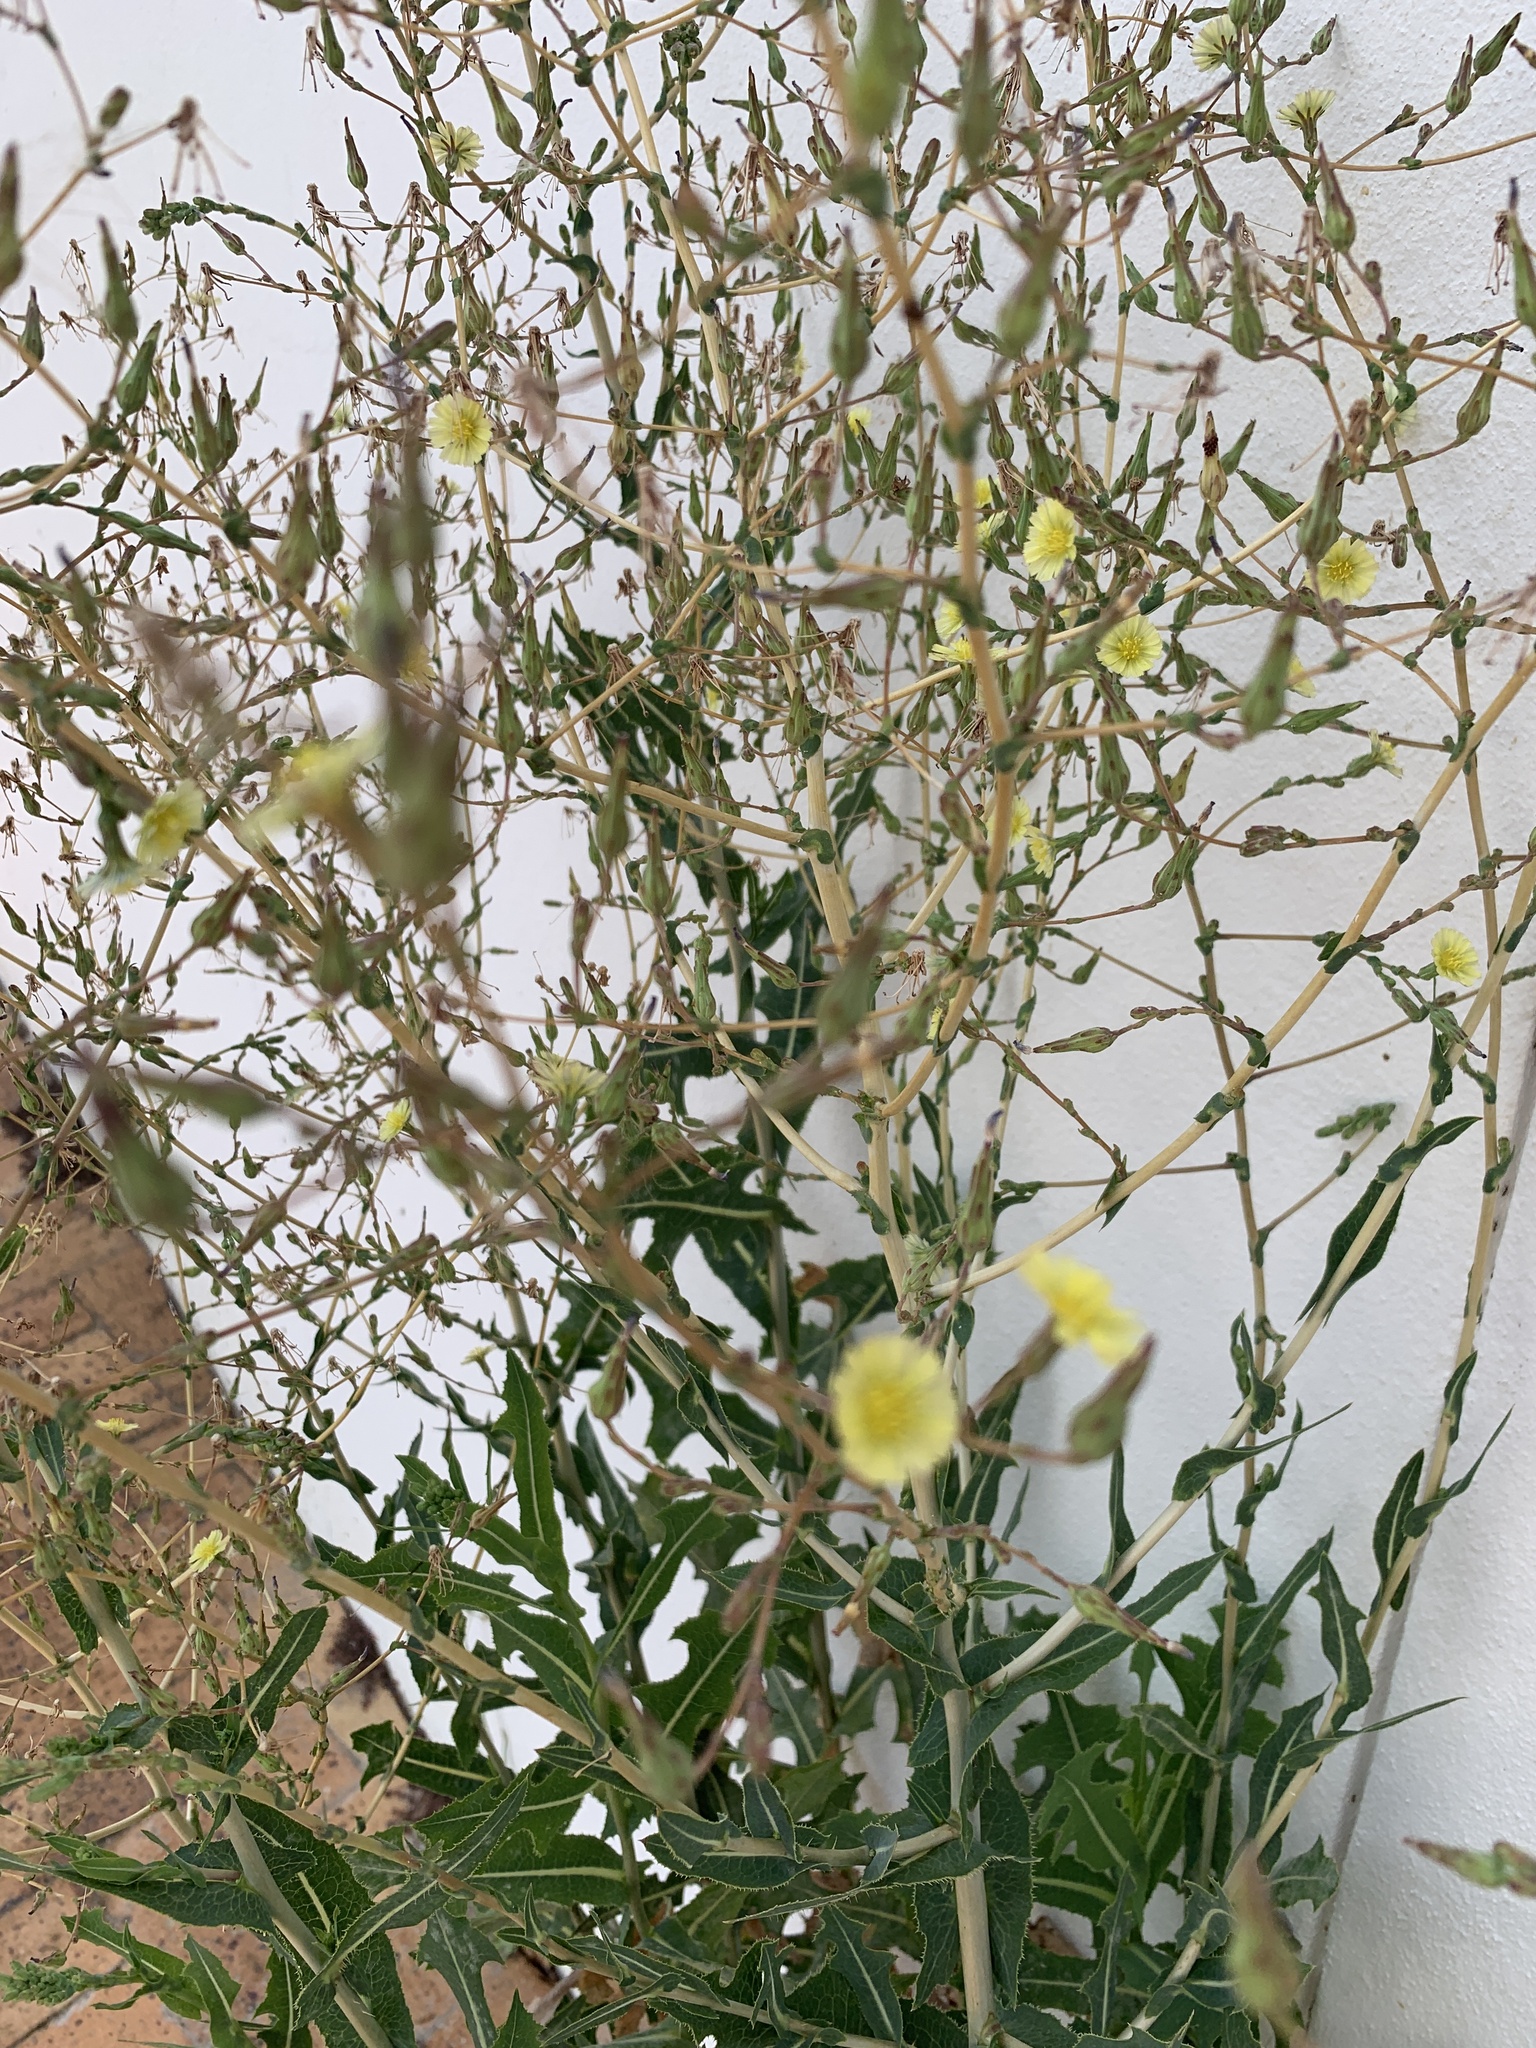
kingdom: Plantae
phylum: Tracheophyta
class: Magnoliopsida
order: Asterales
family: Asteraceae
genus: Lactuca
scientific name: Lactuca serriola
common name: Prickly lettuce
